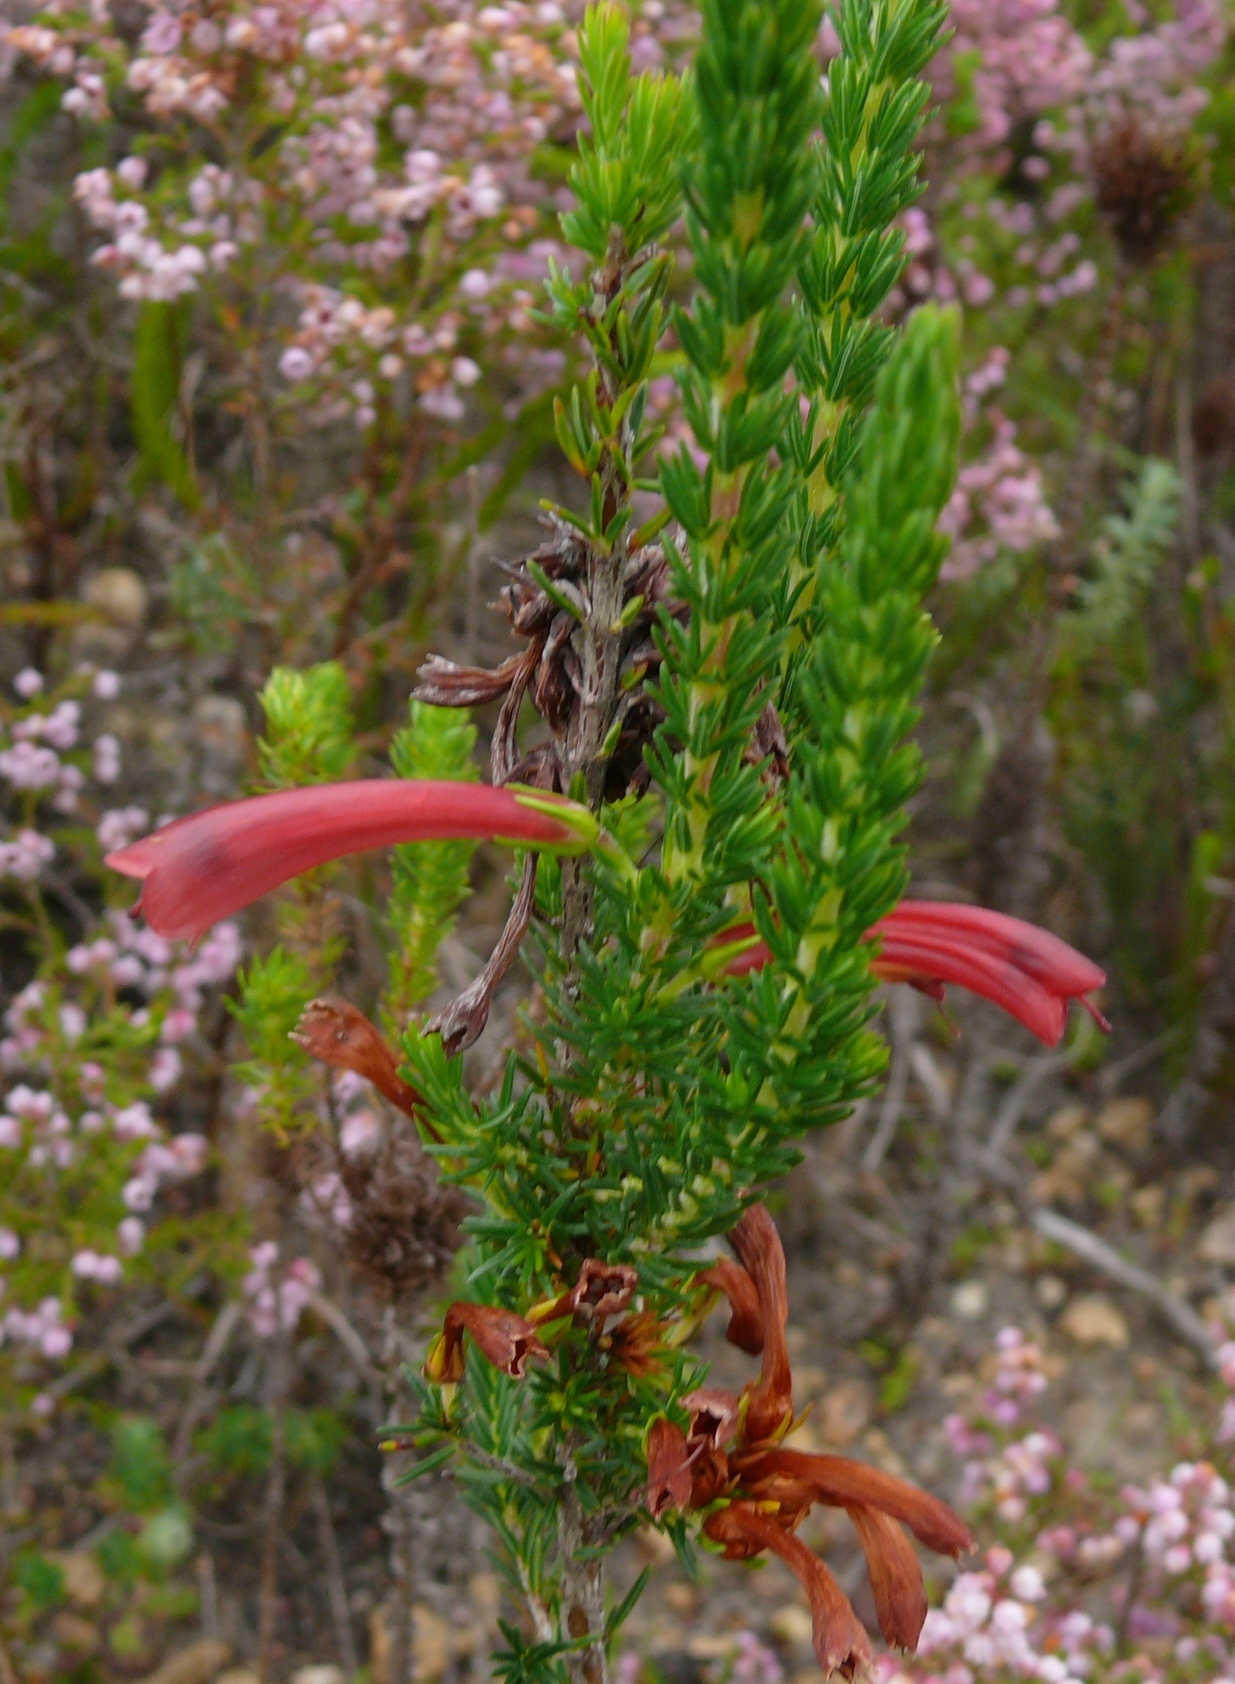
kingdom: Plantae
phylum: Tracheophyta
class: Magnoliopsida
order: Ericales
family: Ericaceae
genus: Erica
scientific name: Erica cruenta
